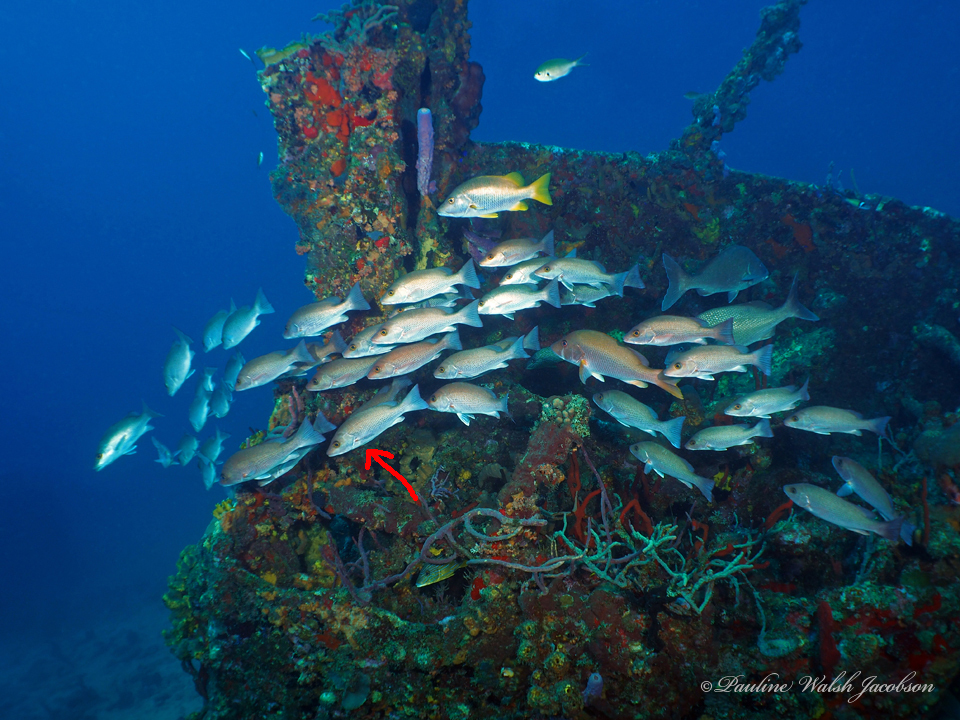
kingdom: Animalia
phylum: Chordata
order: Perciformes
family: Lutjanidae
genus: Lutjanus
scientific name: Lutjanus griseus
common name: Gray snapper
